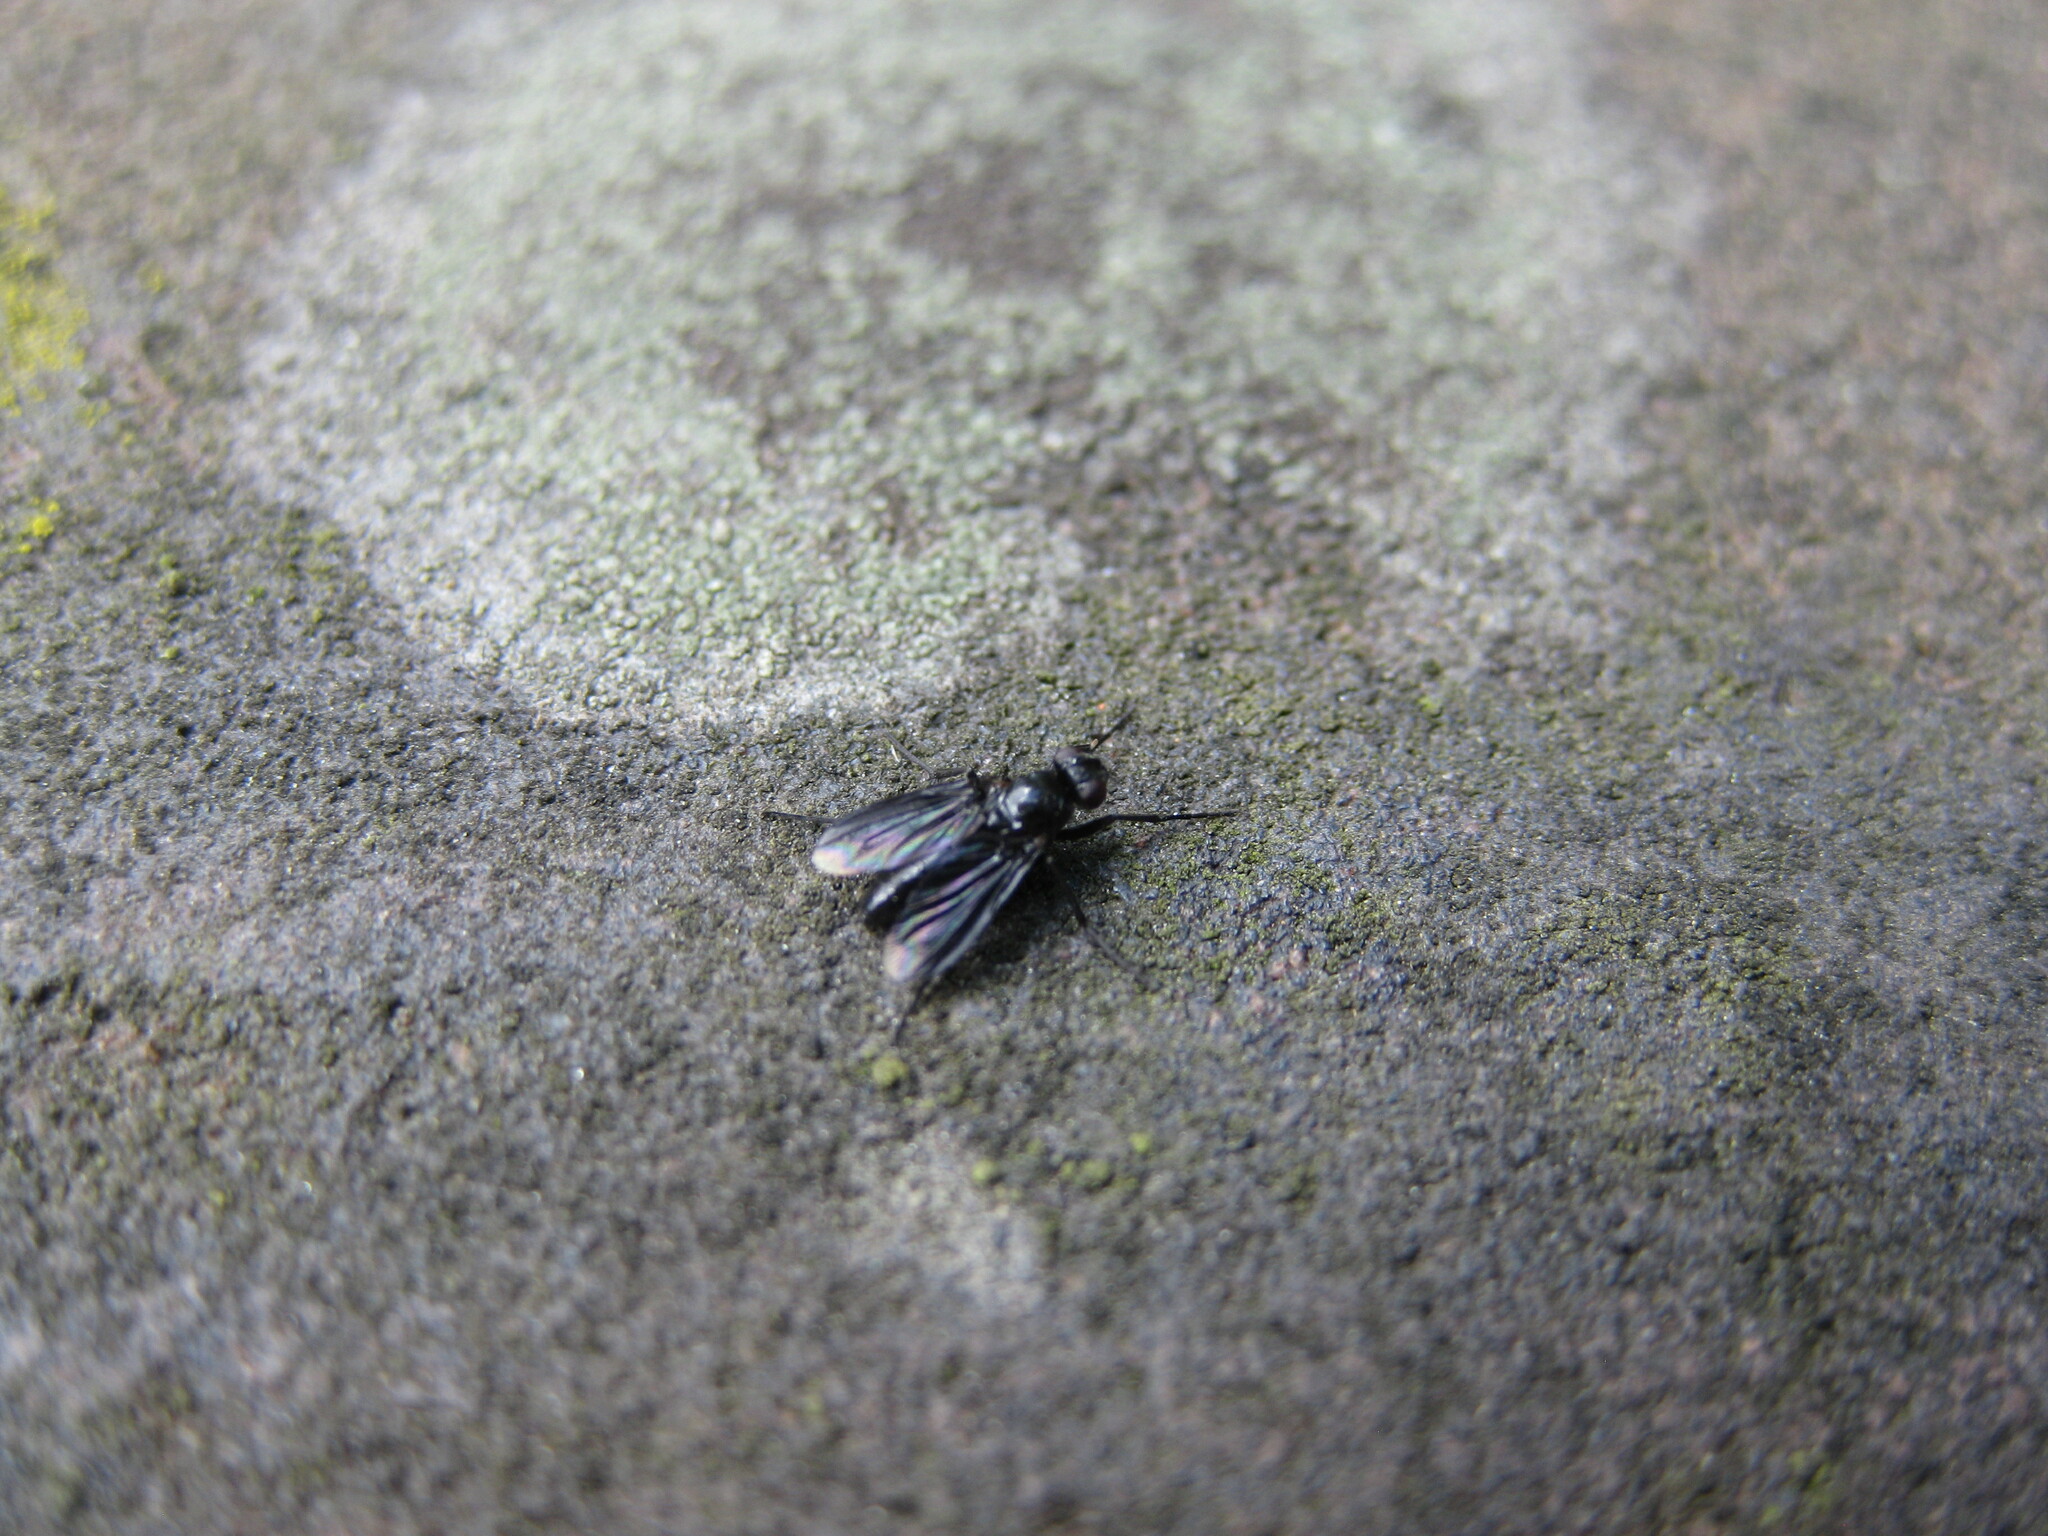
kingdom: Animalia
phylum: Arthropoda
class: Insecta
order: Diptera
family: Calliphoridae
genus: Melanophora
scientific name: Melanophora roralis
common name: Smoky-winged woodlouse-fly
